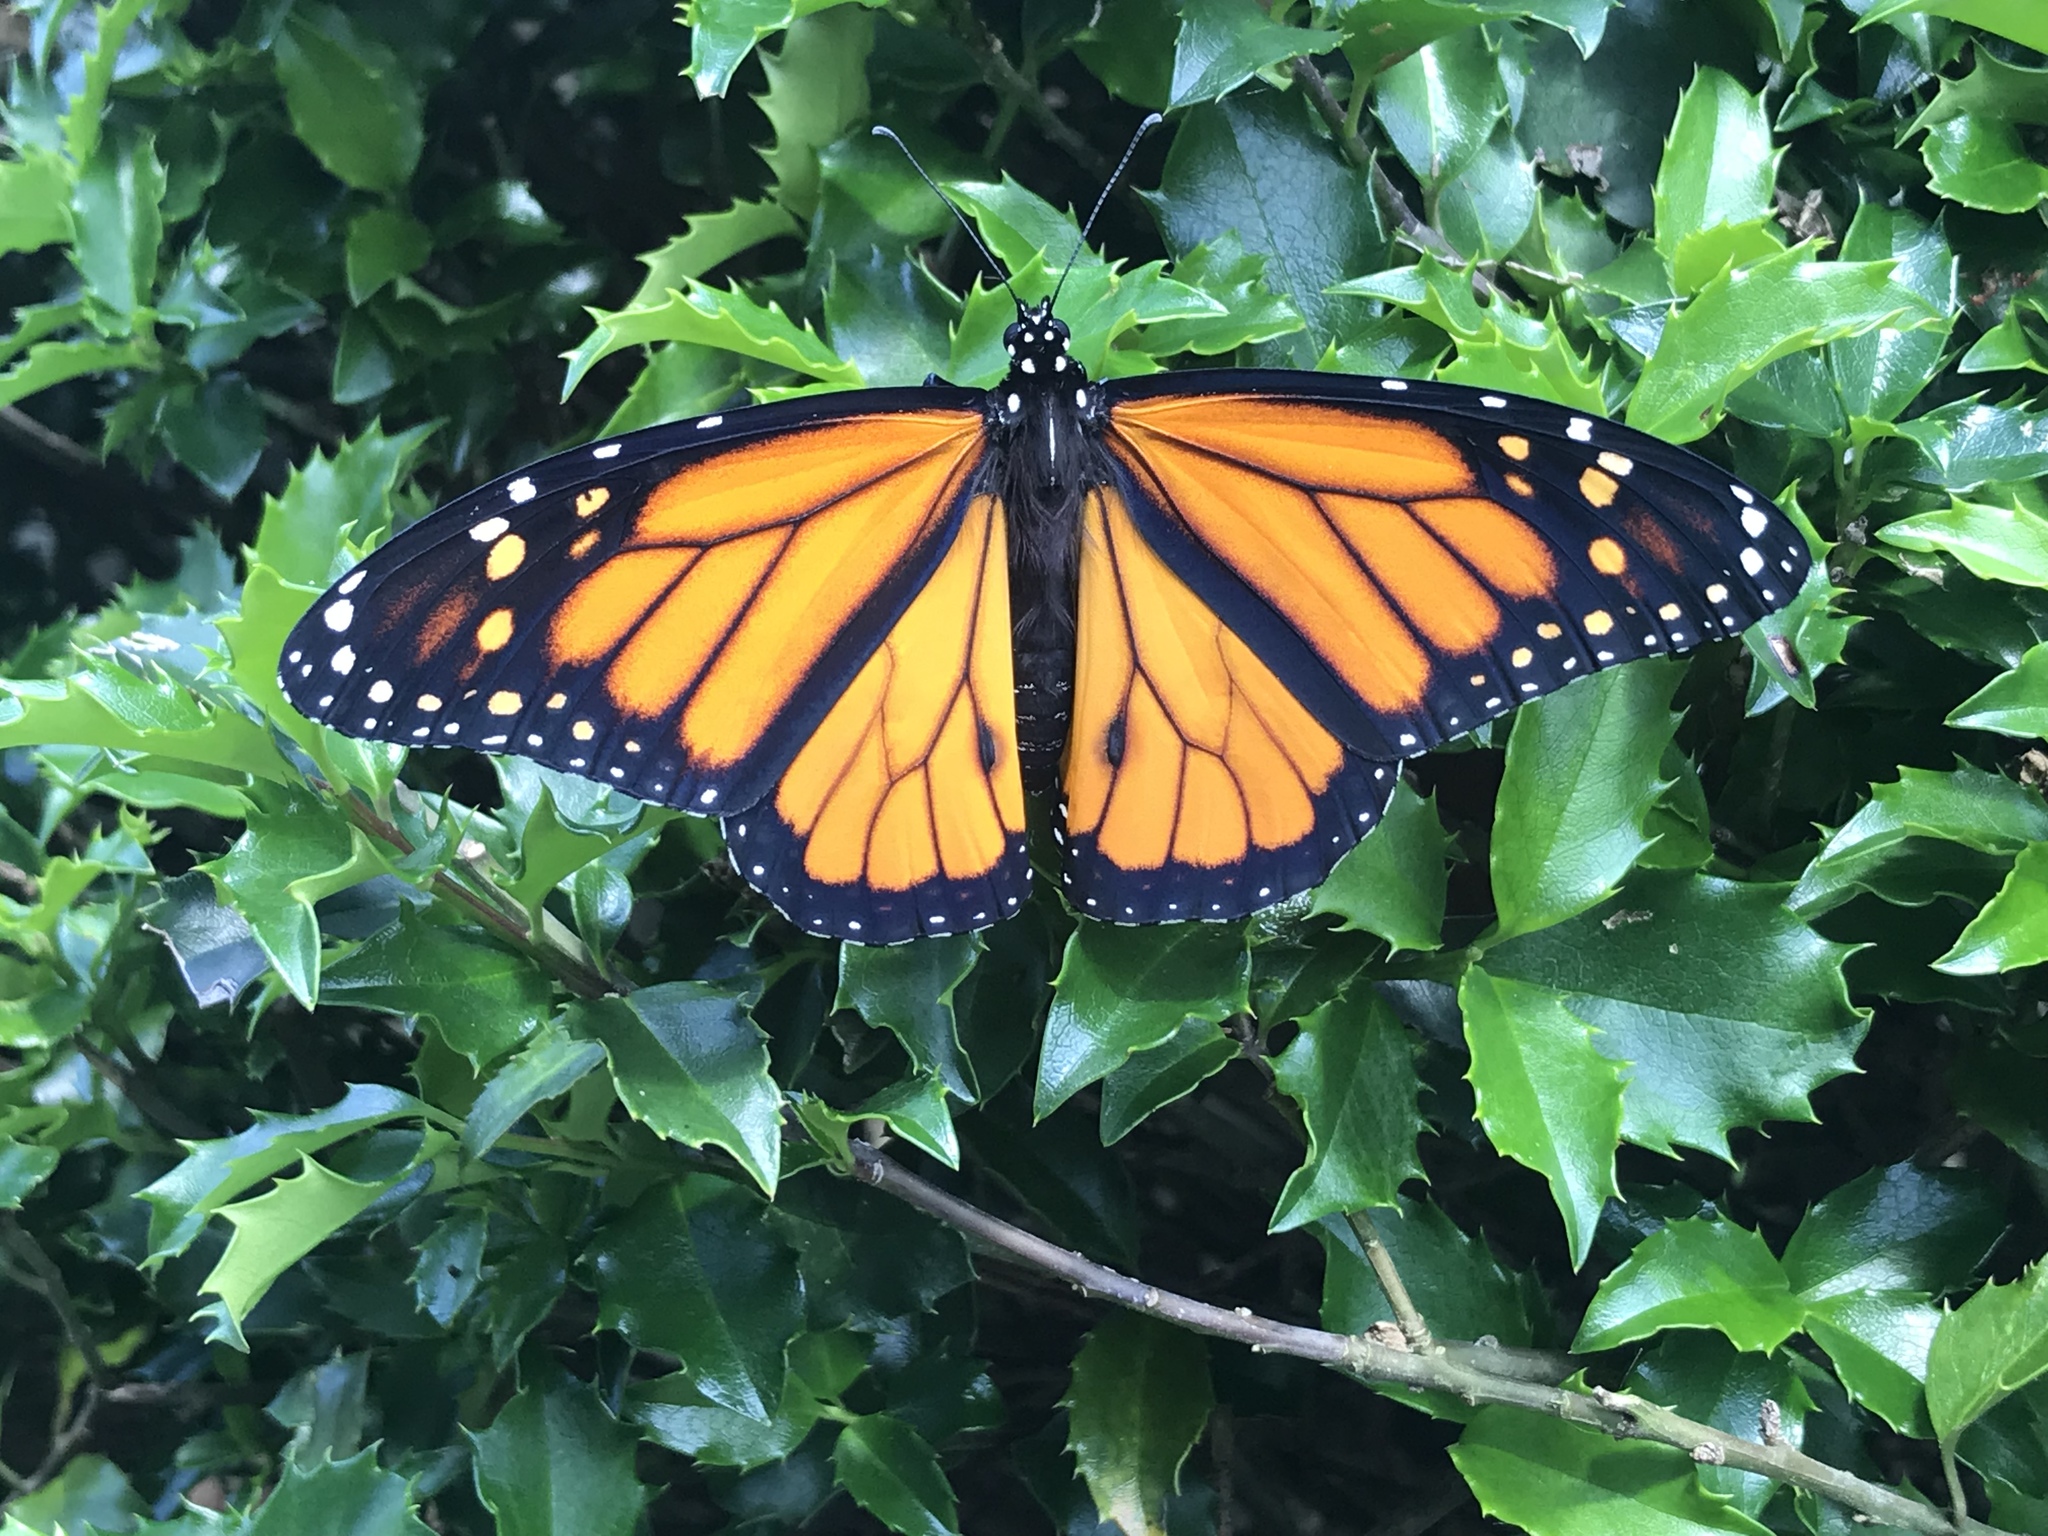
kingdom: Animalia
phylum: Arthropoda
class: Insecta
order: Lepidoptera
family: Nymphalidae
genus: Danaus
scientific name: Danaus plexippus
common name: Monarch
